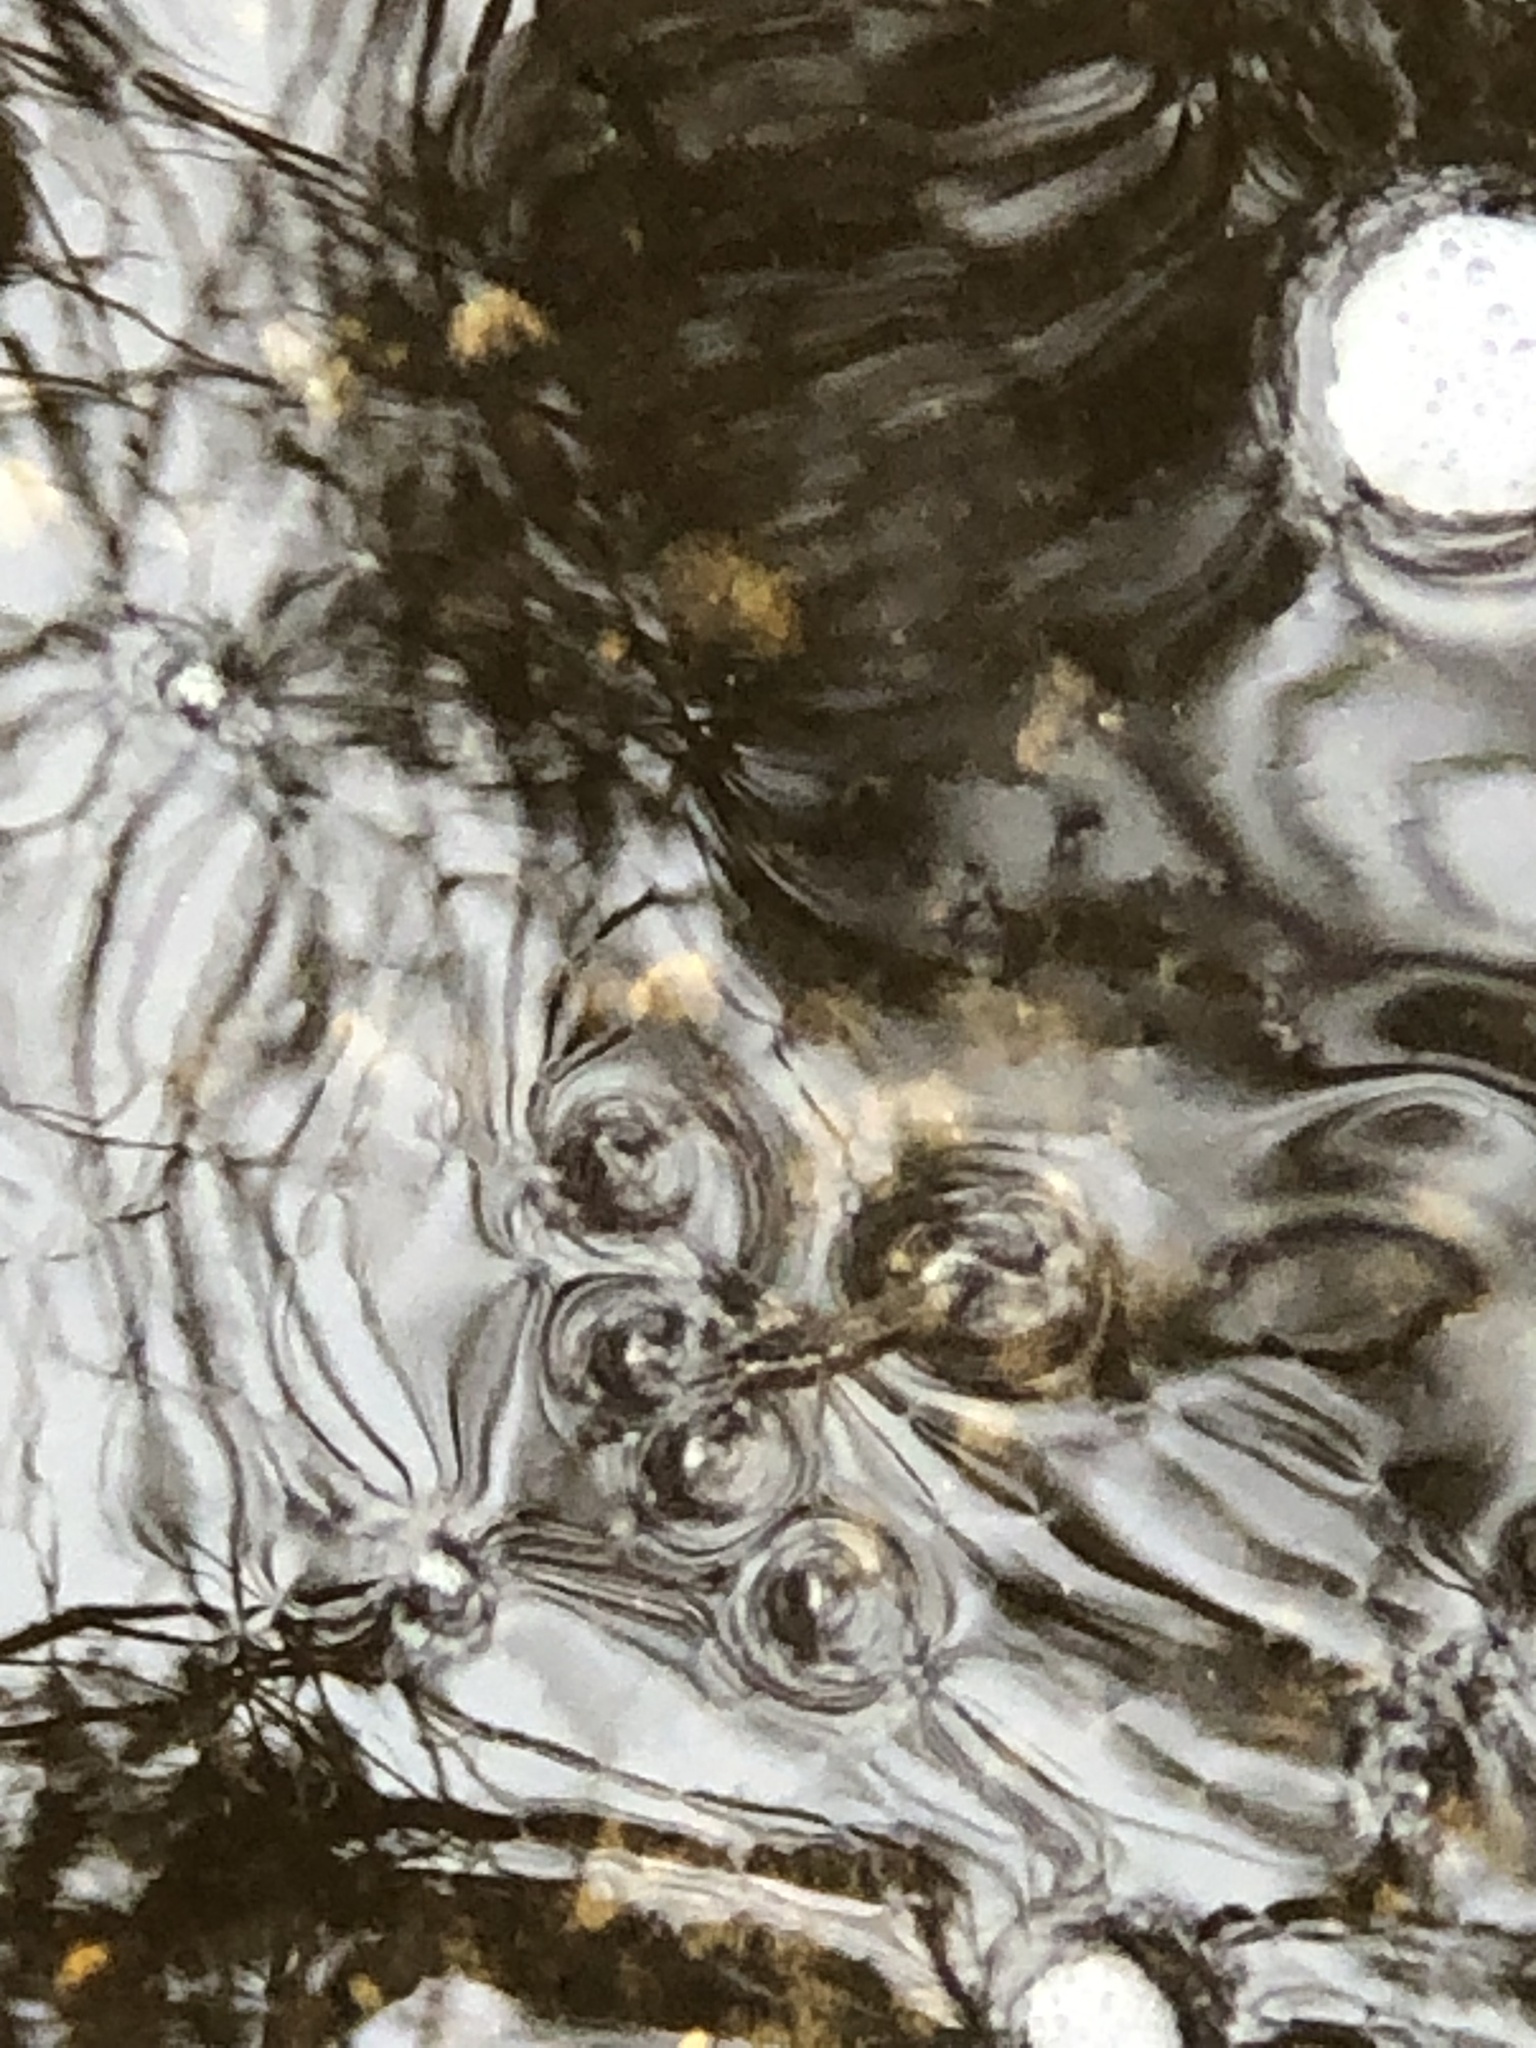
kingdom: Animalia
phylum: Arthropoda
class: Insecta
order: Hemiptera
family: Gerridae
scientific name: Gerridae
